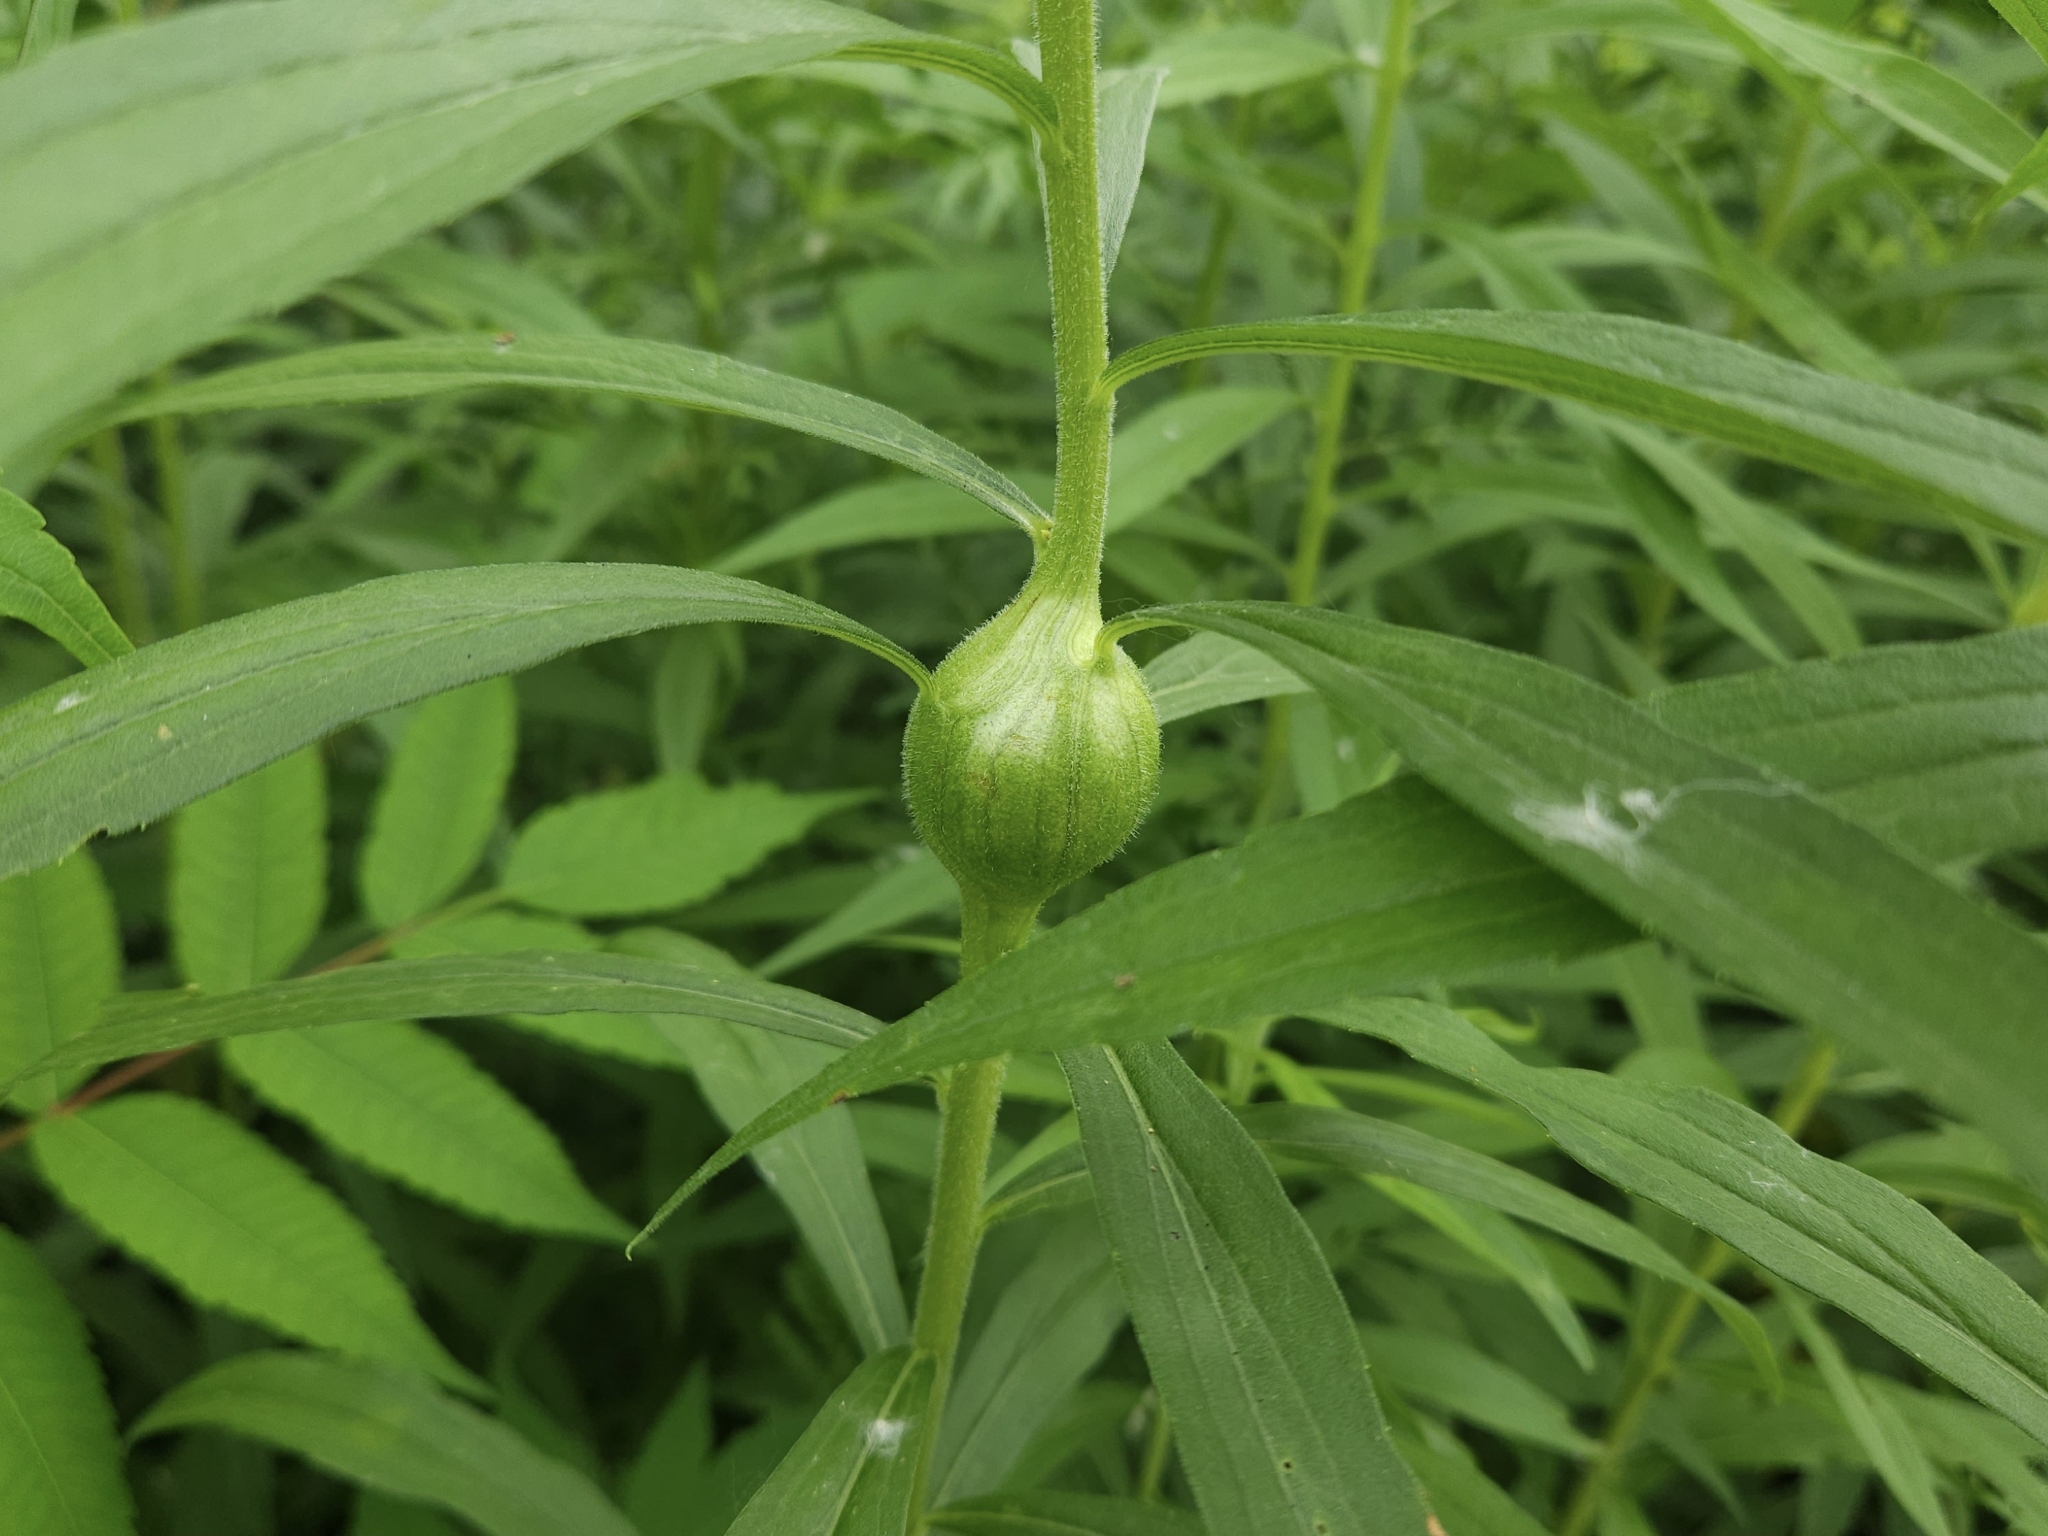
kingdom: Animalia
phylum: Arthropoda
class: Insecta
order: Diptera
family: Tephritidae
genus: Eurosta
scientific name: Eurosta solidaginis
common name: Goldenrod gall fly
